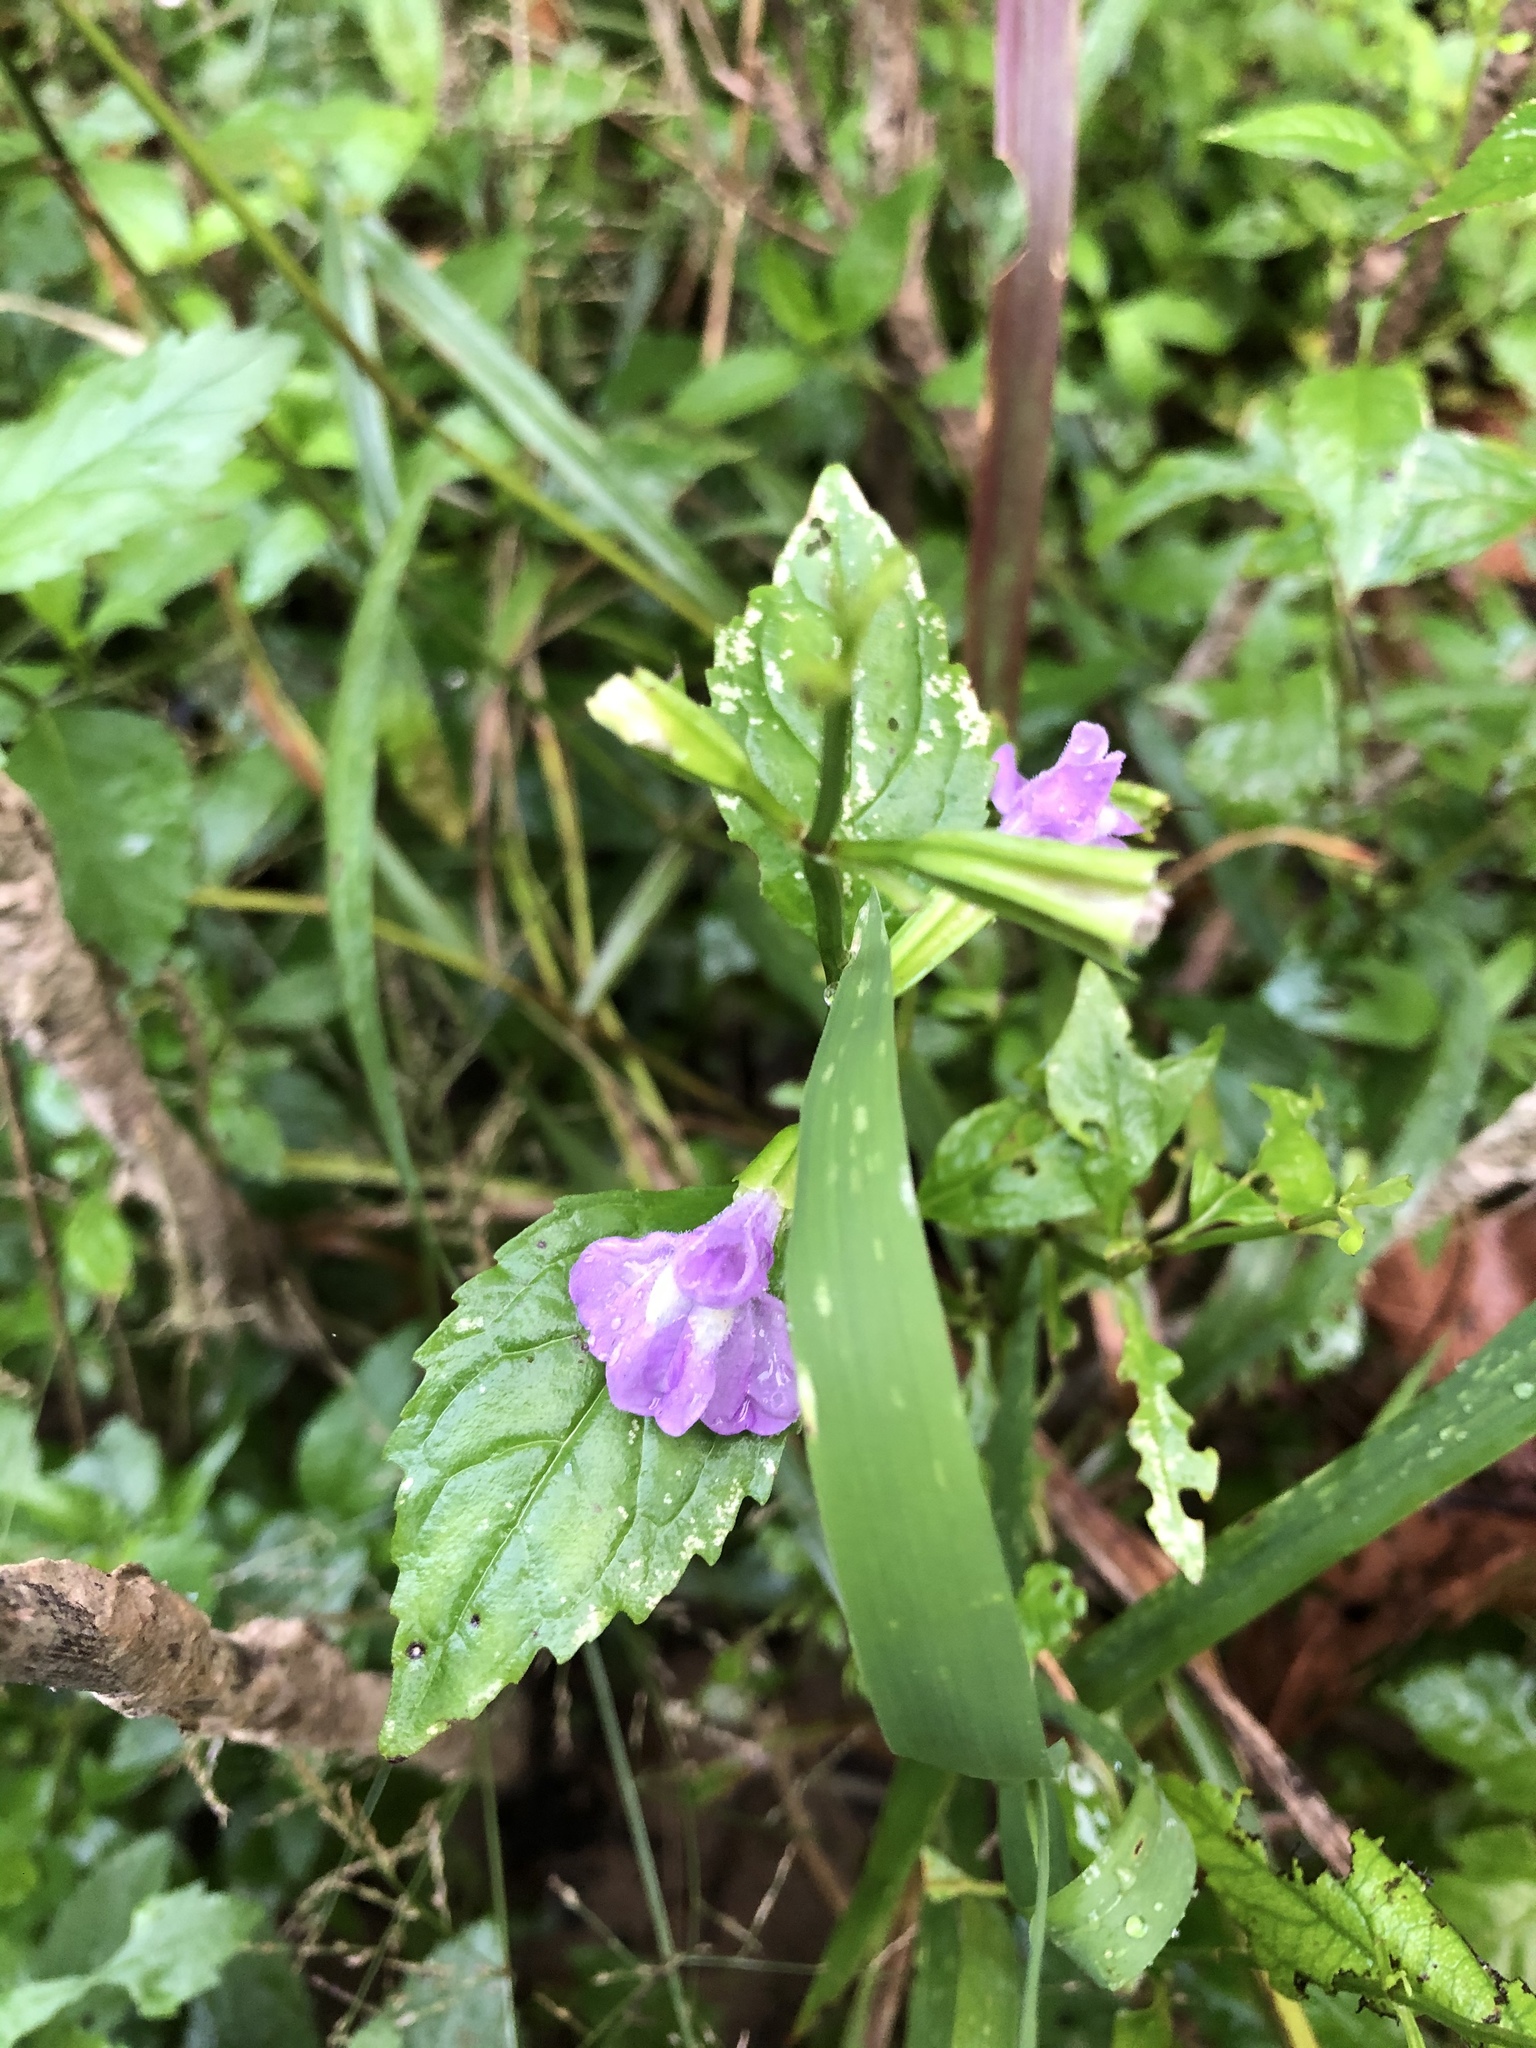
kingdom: Plantae
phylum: Tracheophyta
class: Magnoliopsida
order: Lamiales
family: Phrymaceae
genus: Mimulus
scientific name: Mimulus alatus
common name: Sharp-wing monkey-flower
